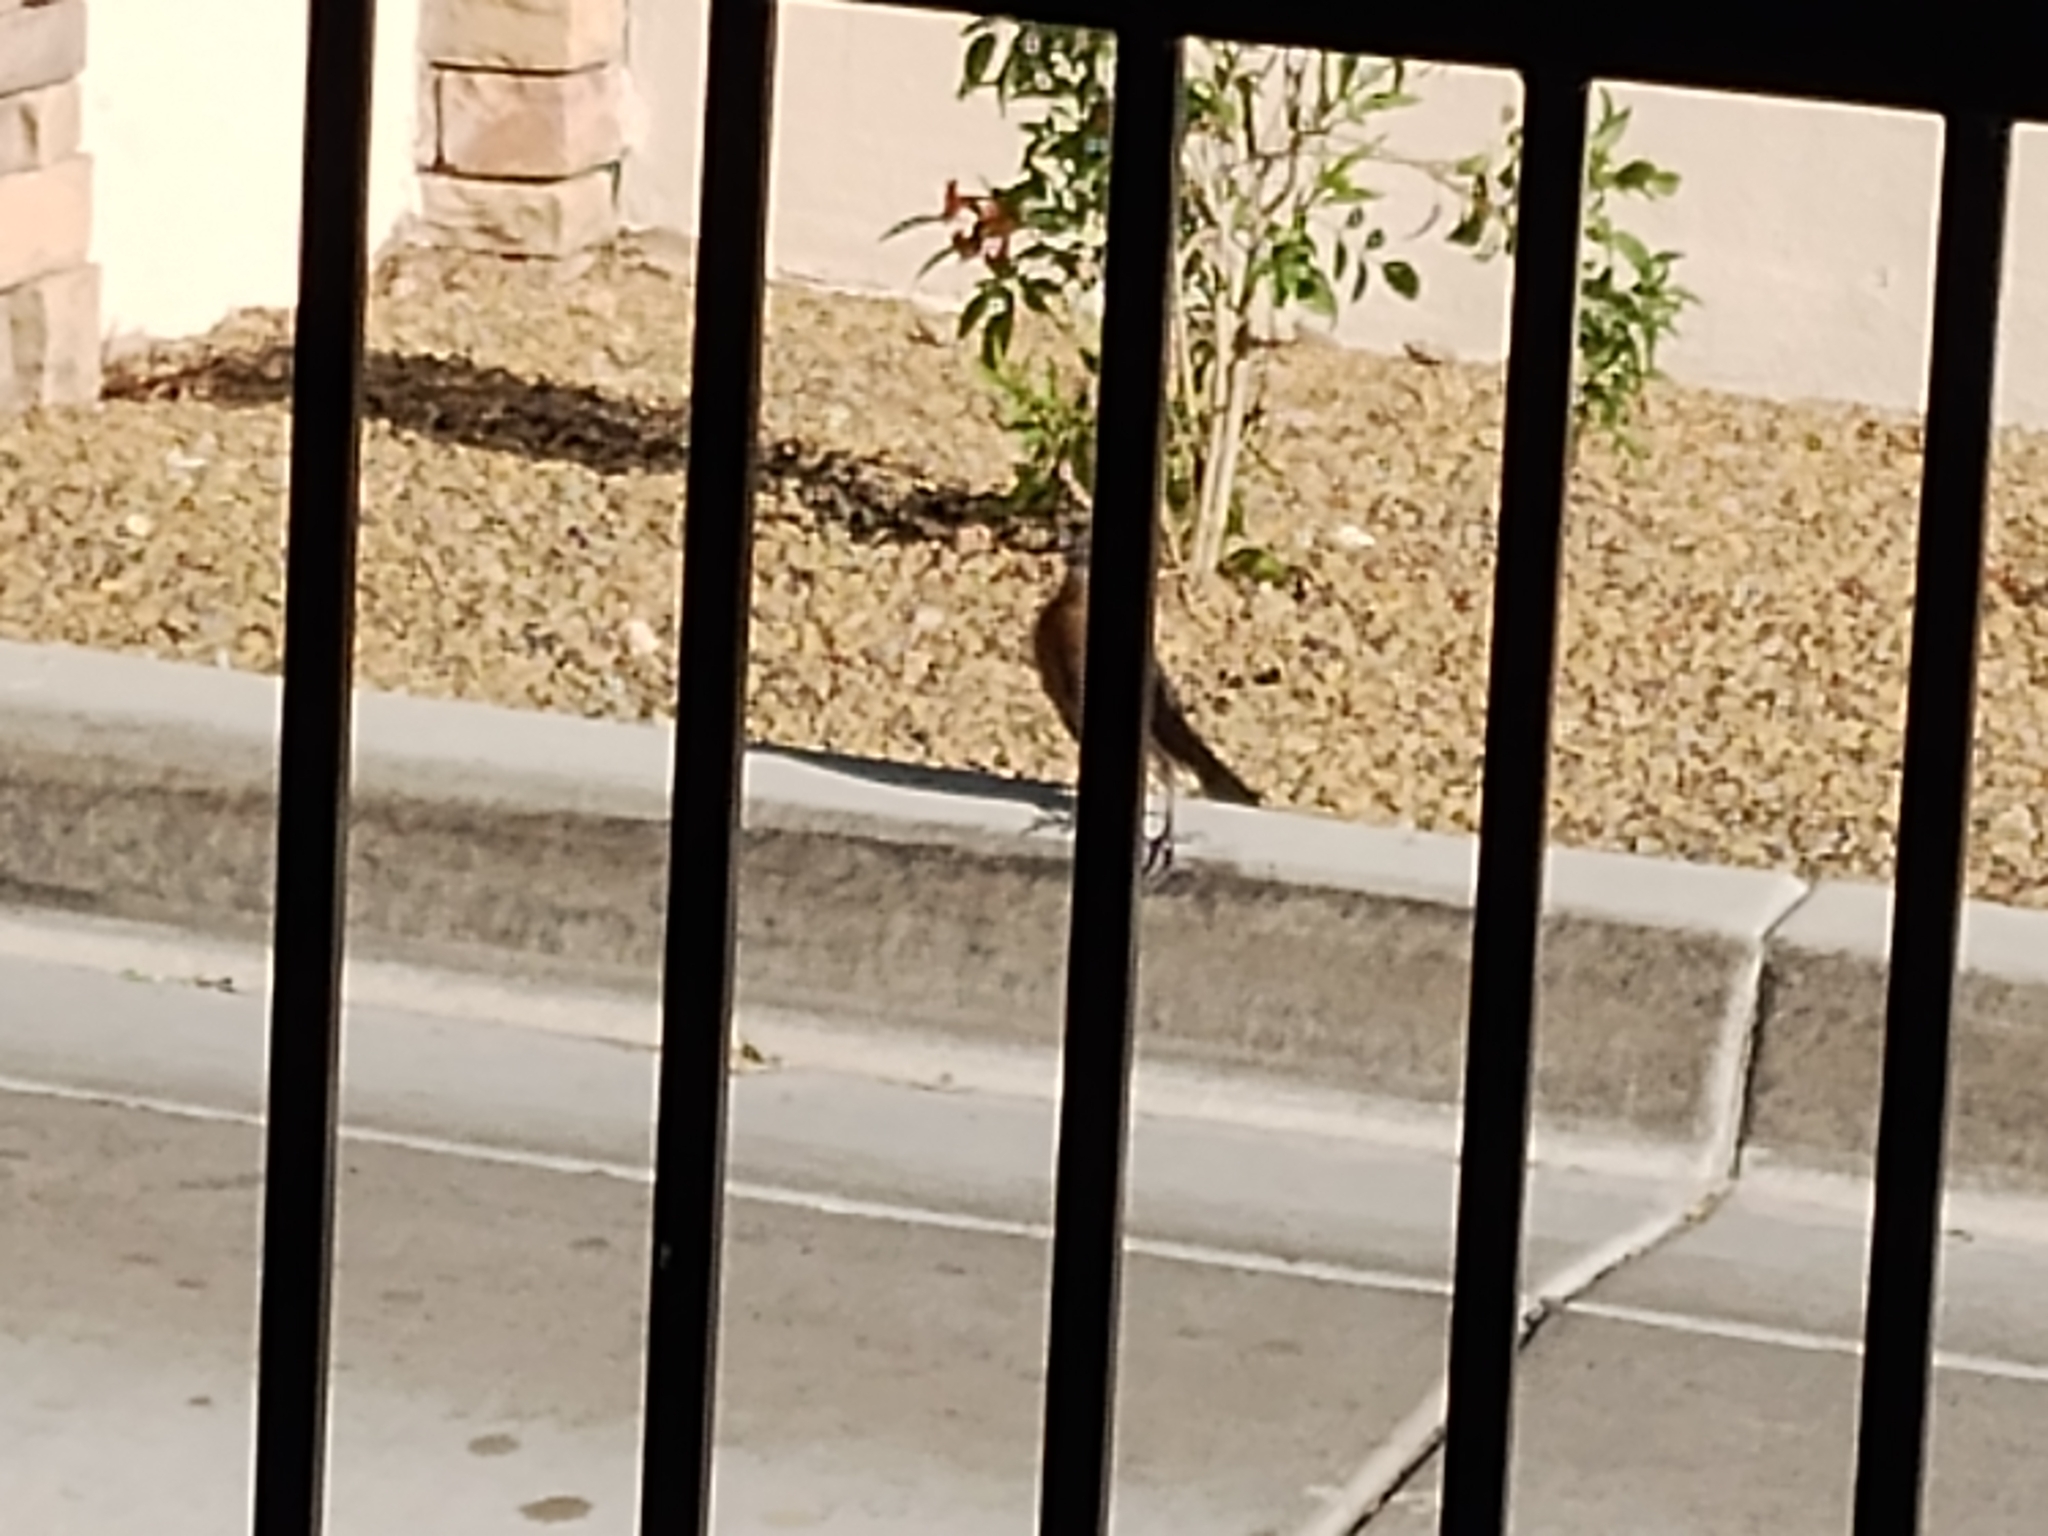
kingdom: Animalia
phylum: Chordata
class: Aves
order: Passeriformes
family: Icteridae
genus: Quiscalus
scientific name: Quiscalus mexicanus
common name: Great-tailed grackle
